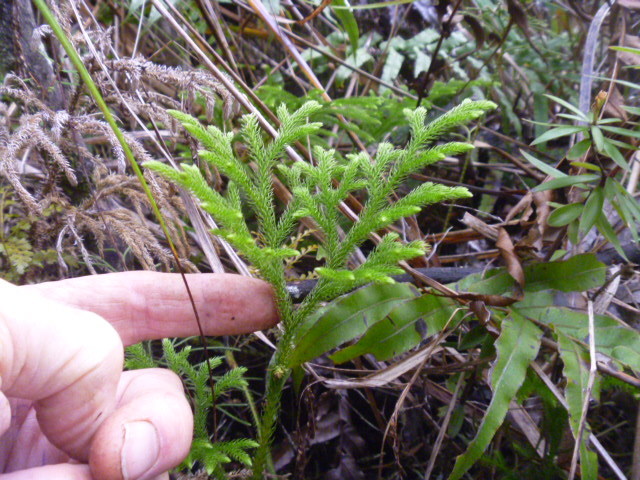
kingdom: Plantae
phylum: Tracheophyta
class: Lycopodiopsida
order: Lycopodiales
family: Lycopodiaceae
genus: Palhinhaea
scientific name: Palhinhaea cernua
